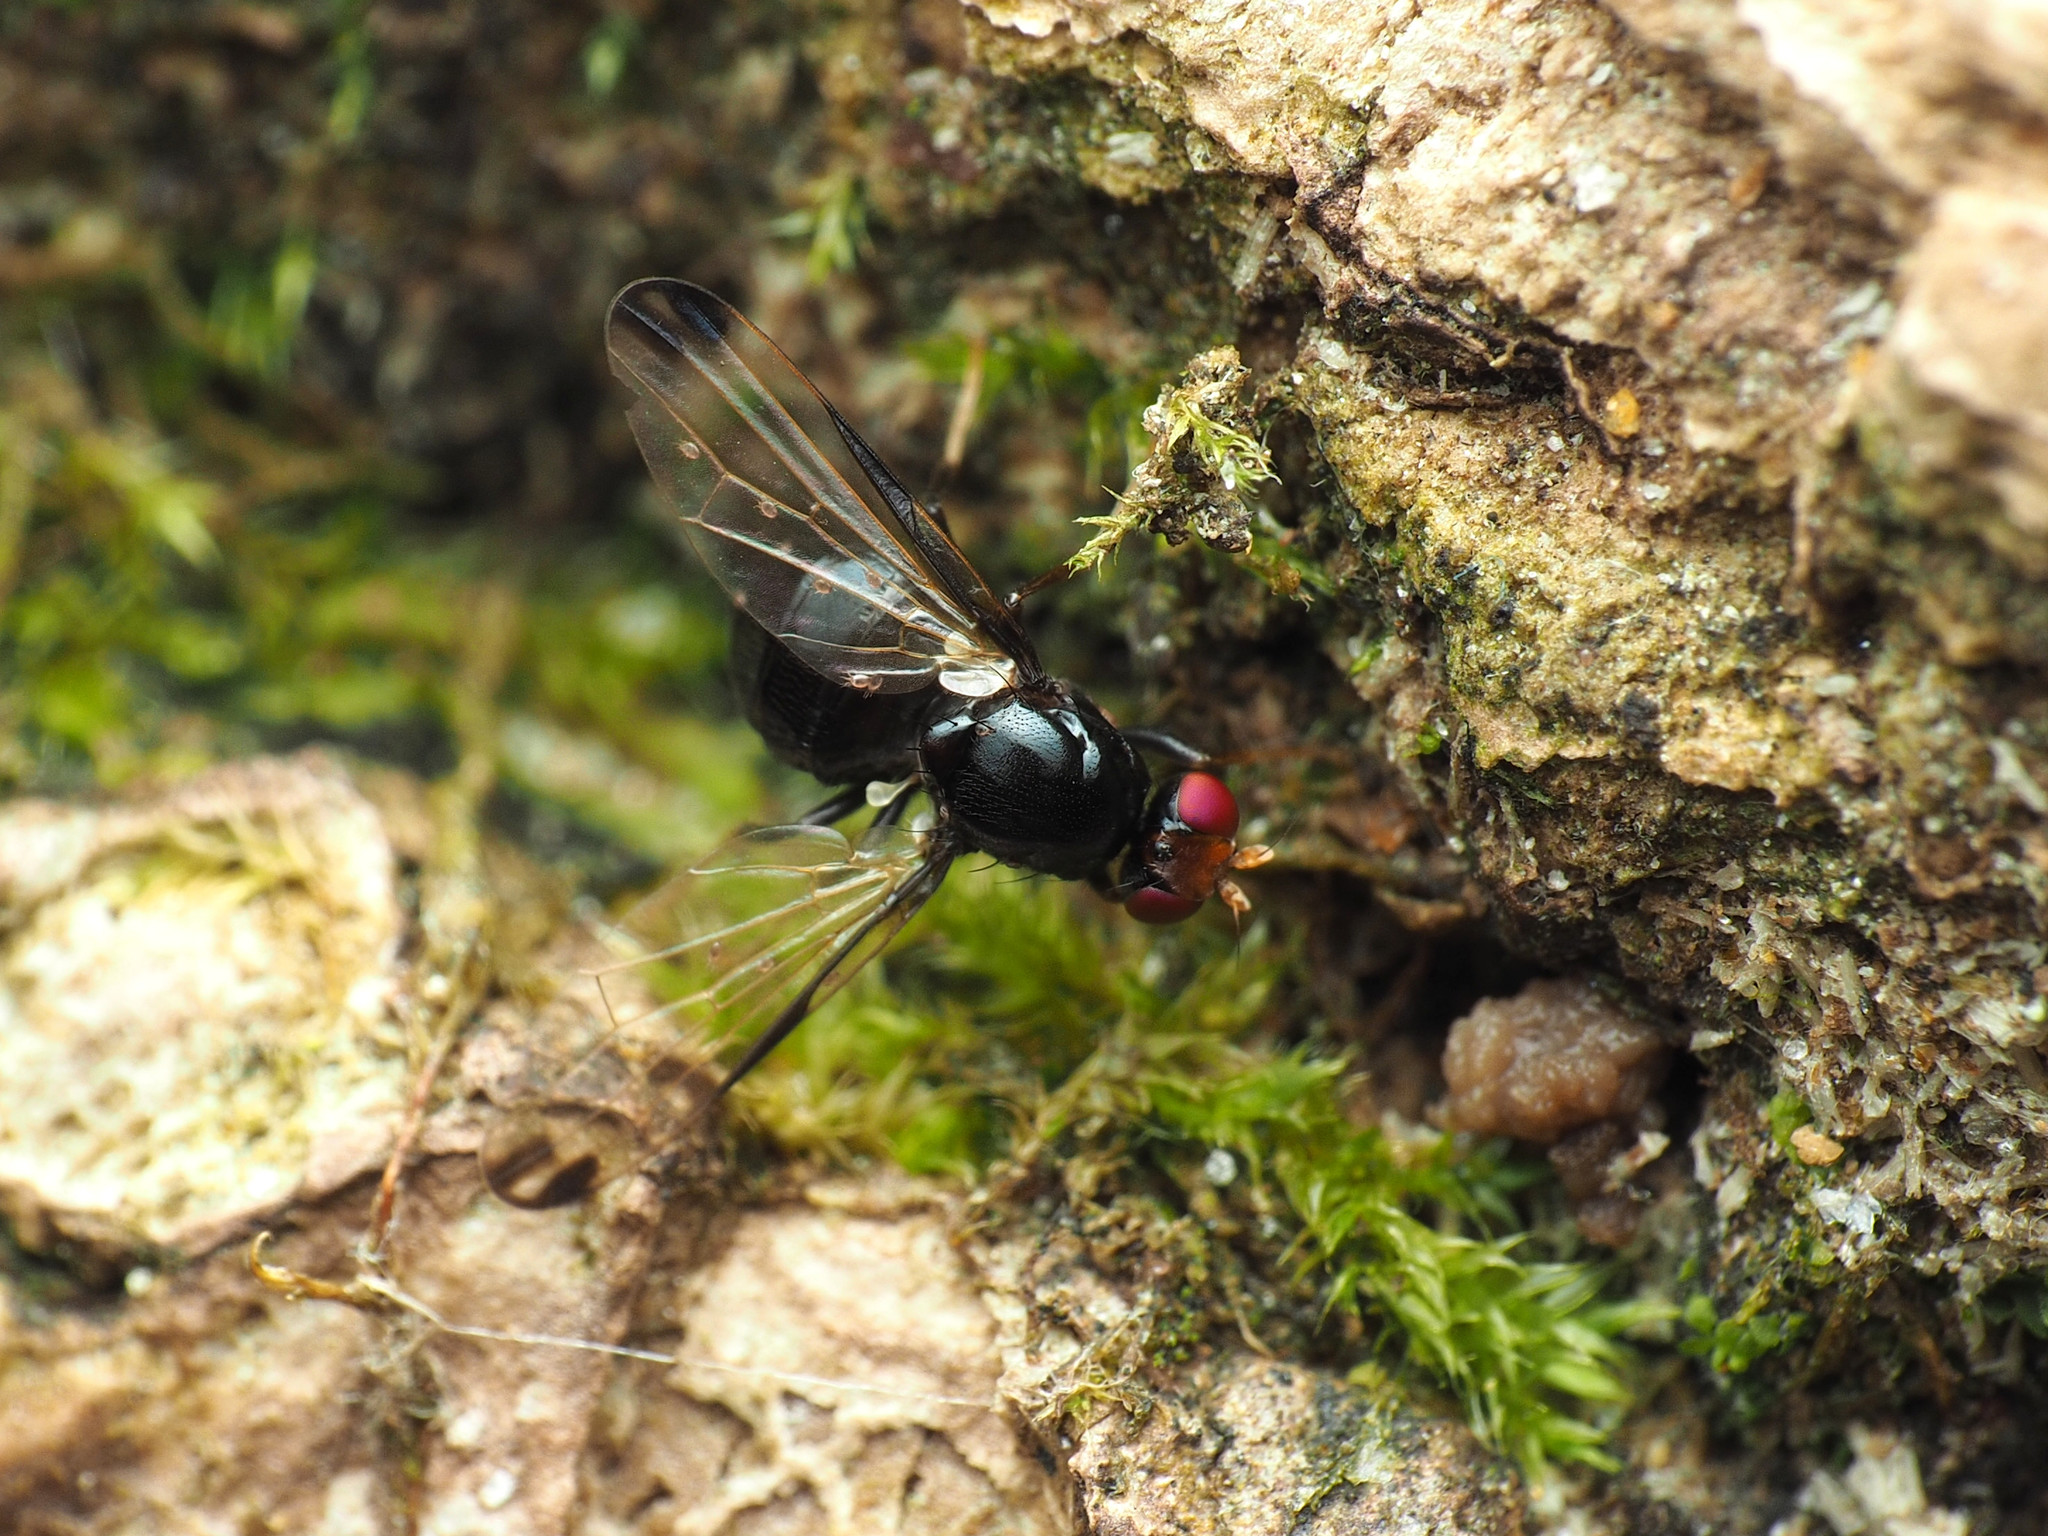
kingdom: Animalia
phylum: Arthropoda
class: Insecta
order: Diptera
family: Ulidiidae
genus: Pseudoseioptera
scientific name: Pseudoseioptera albipes
